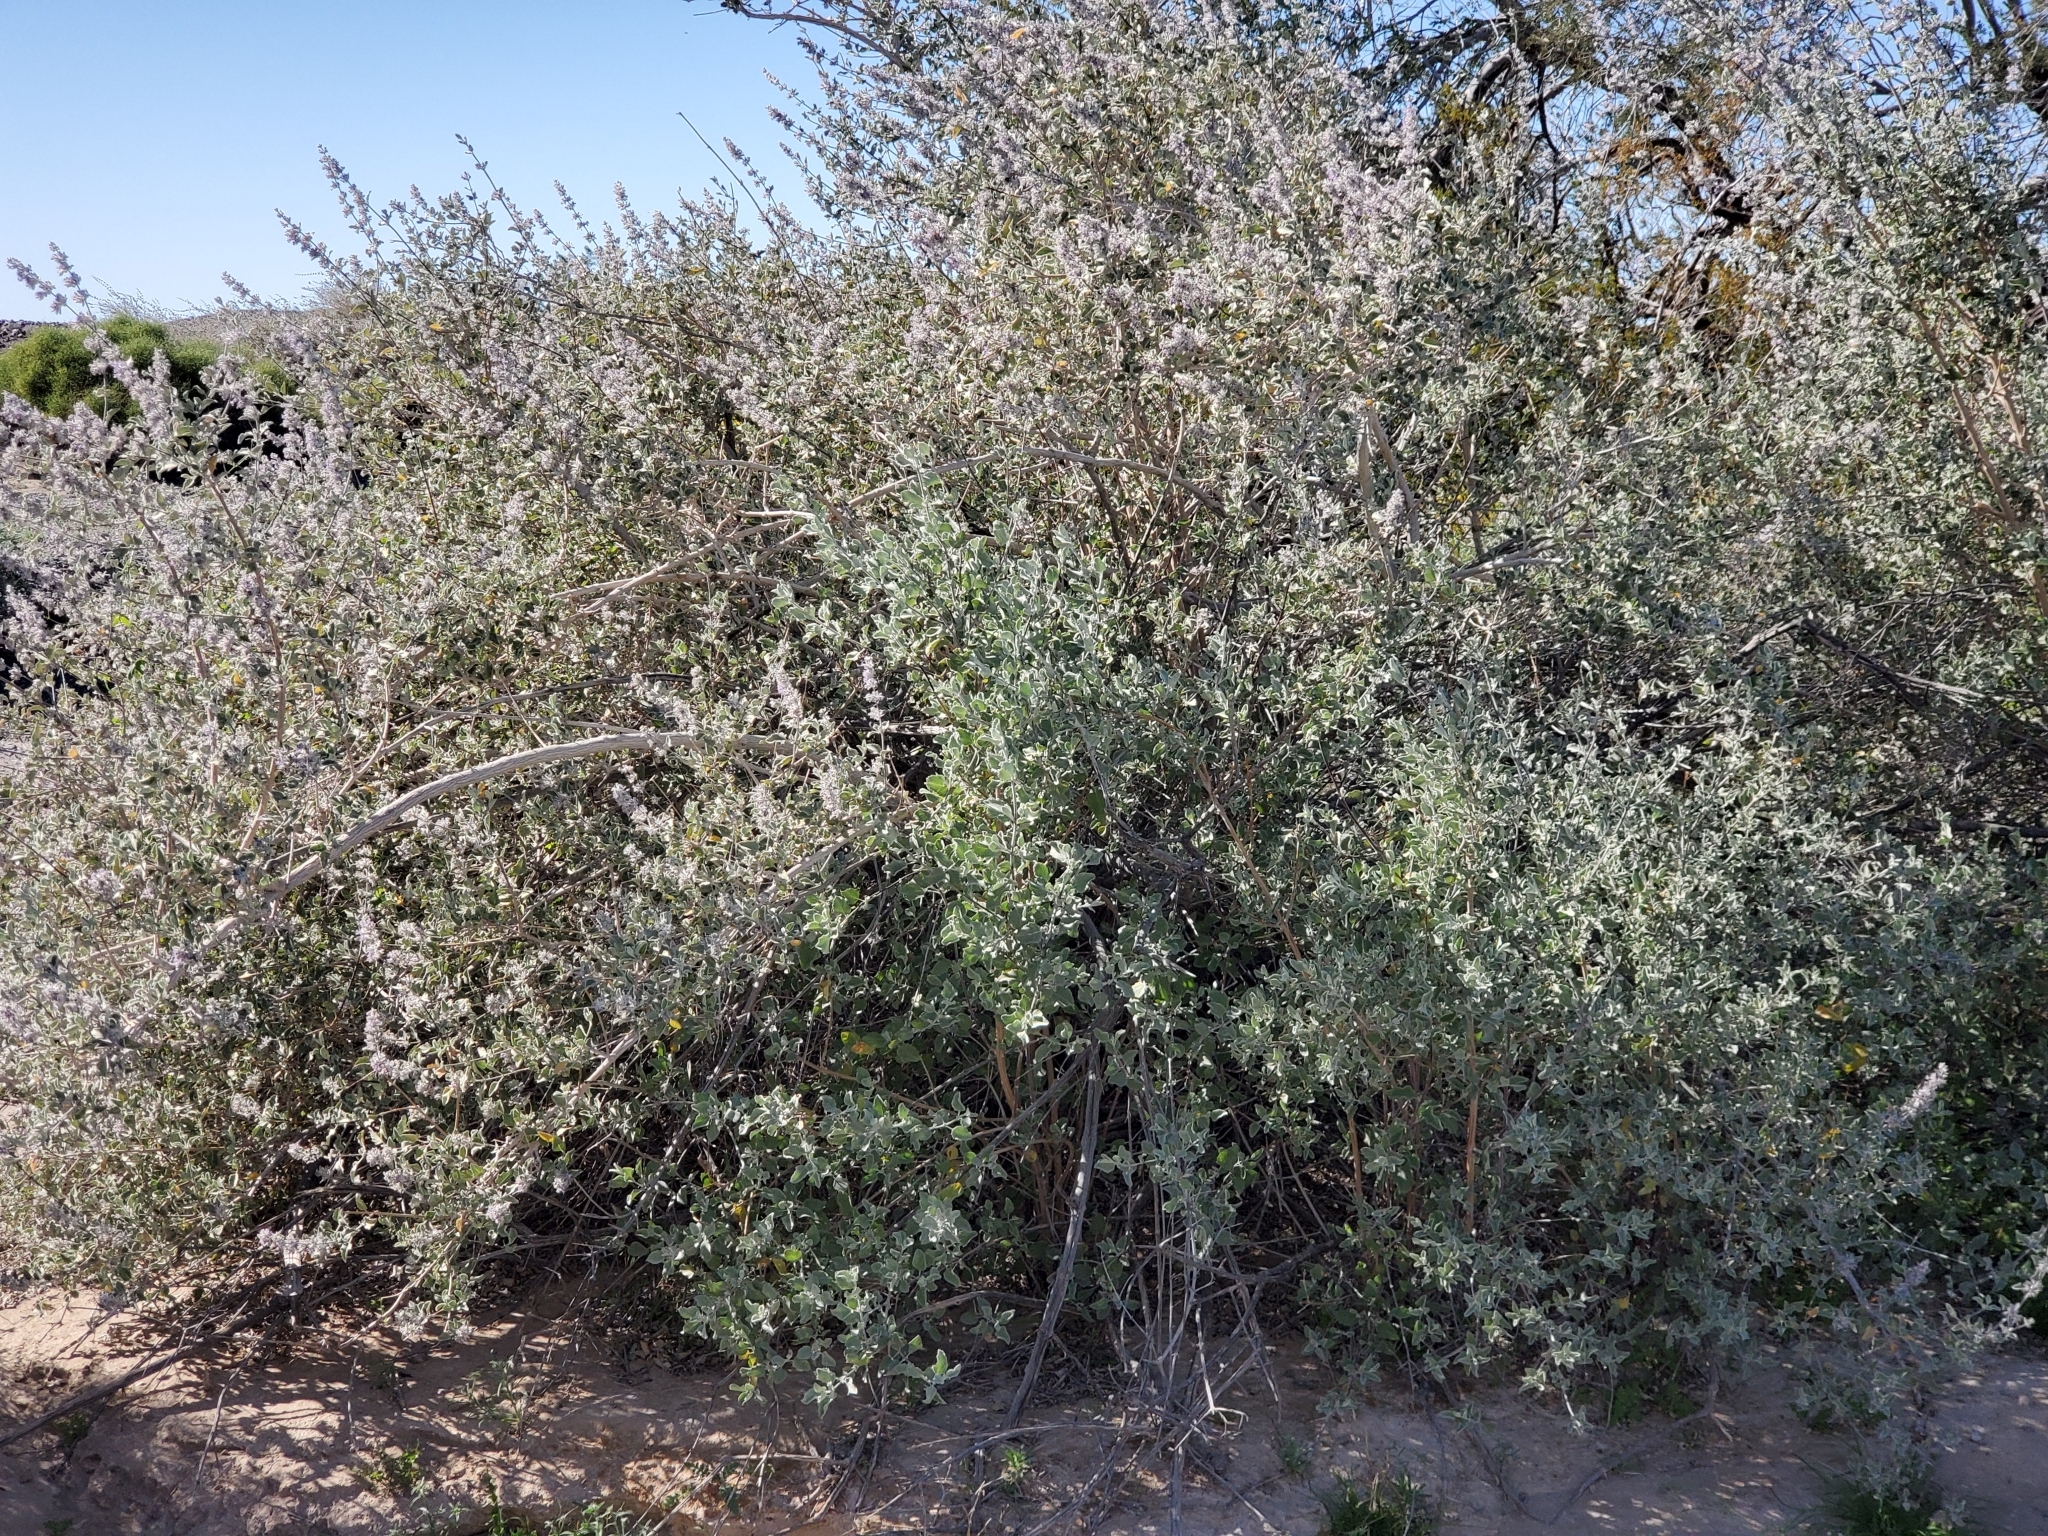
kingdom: Plantae
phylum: Tracheophyta
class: Magnoliopsida
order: Lamiales
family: Lamiaceae
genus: Condea
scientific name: Condea emoryi
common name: Chia
